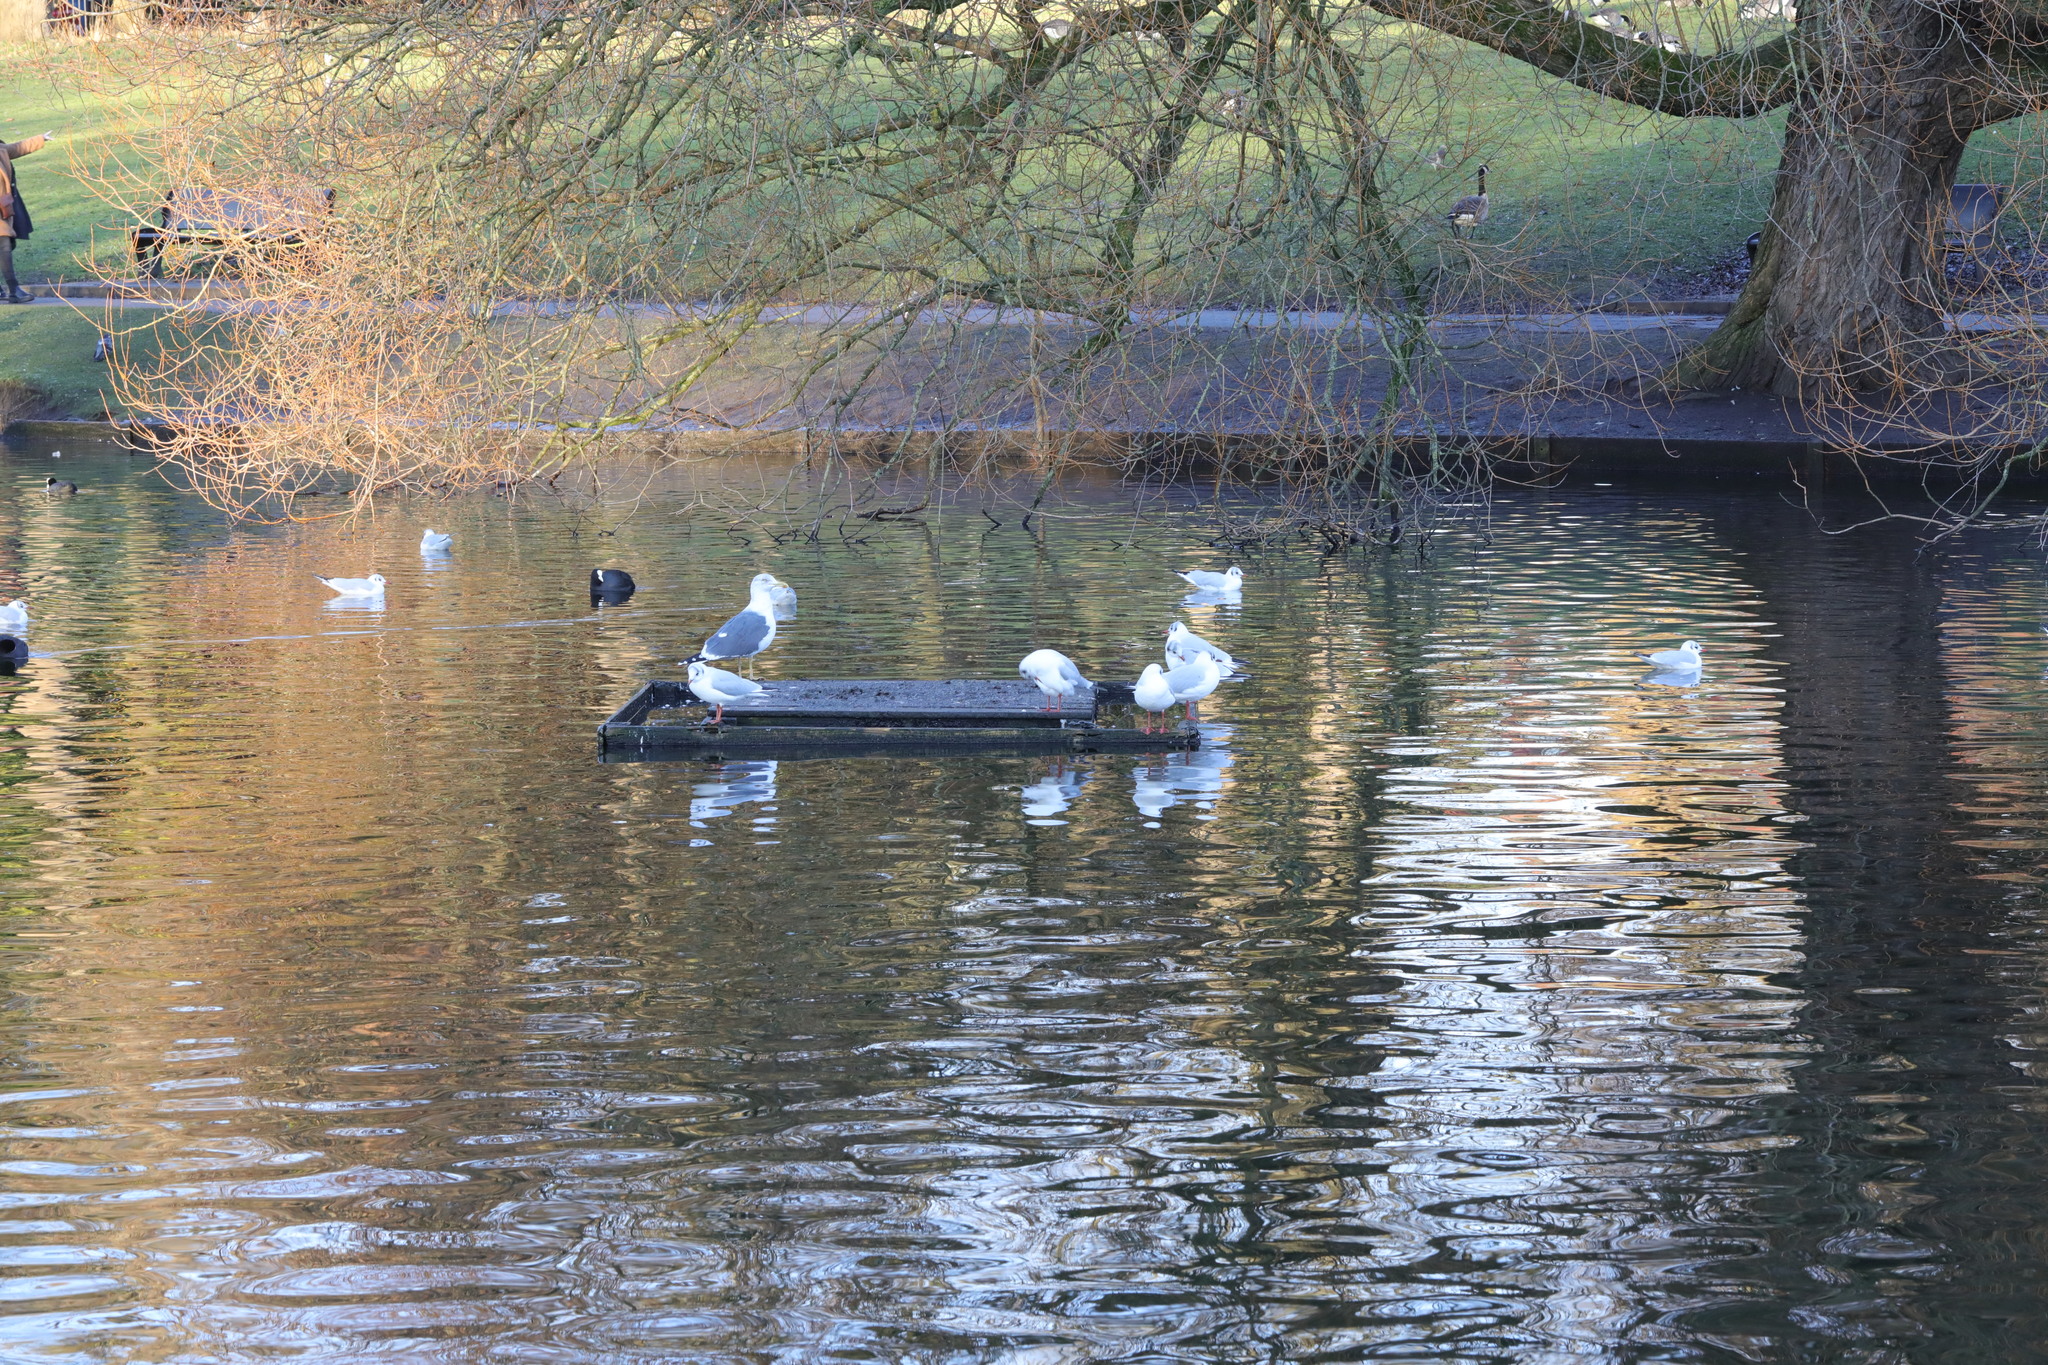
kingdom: Animalia
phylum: Chordata
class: Aves
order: Charadriiformes
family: Laridae
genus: Larus
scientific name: Larus argentatus
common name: Herring gull
